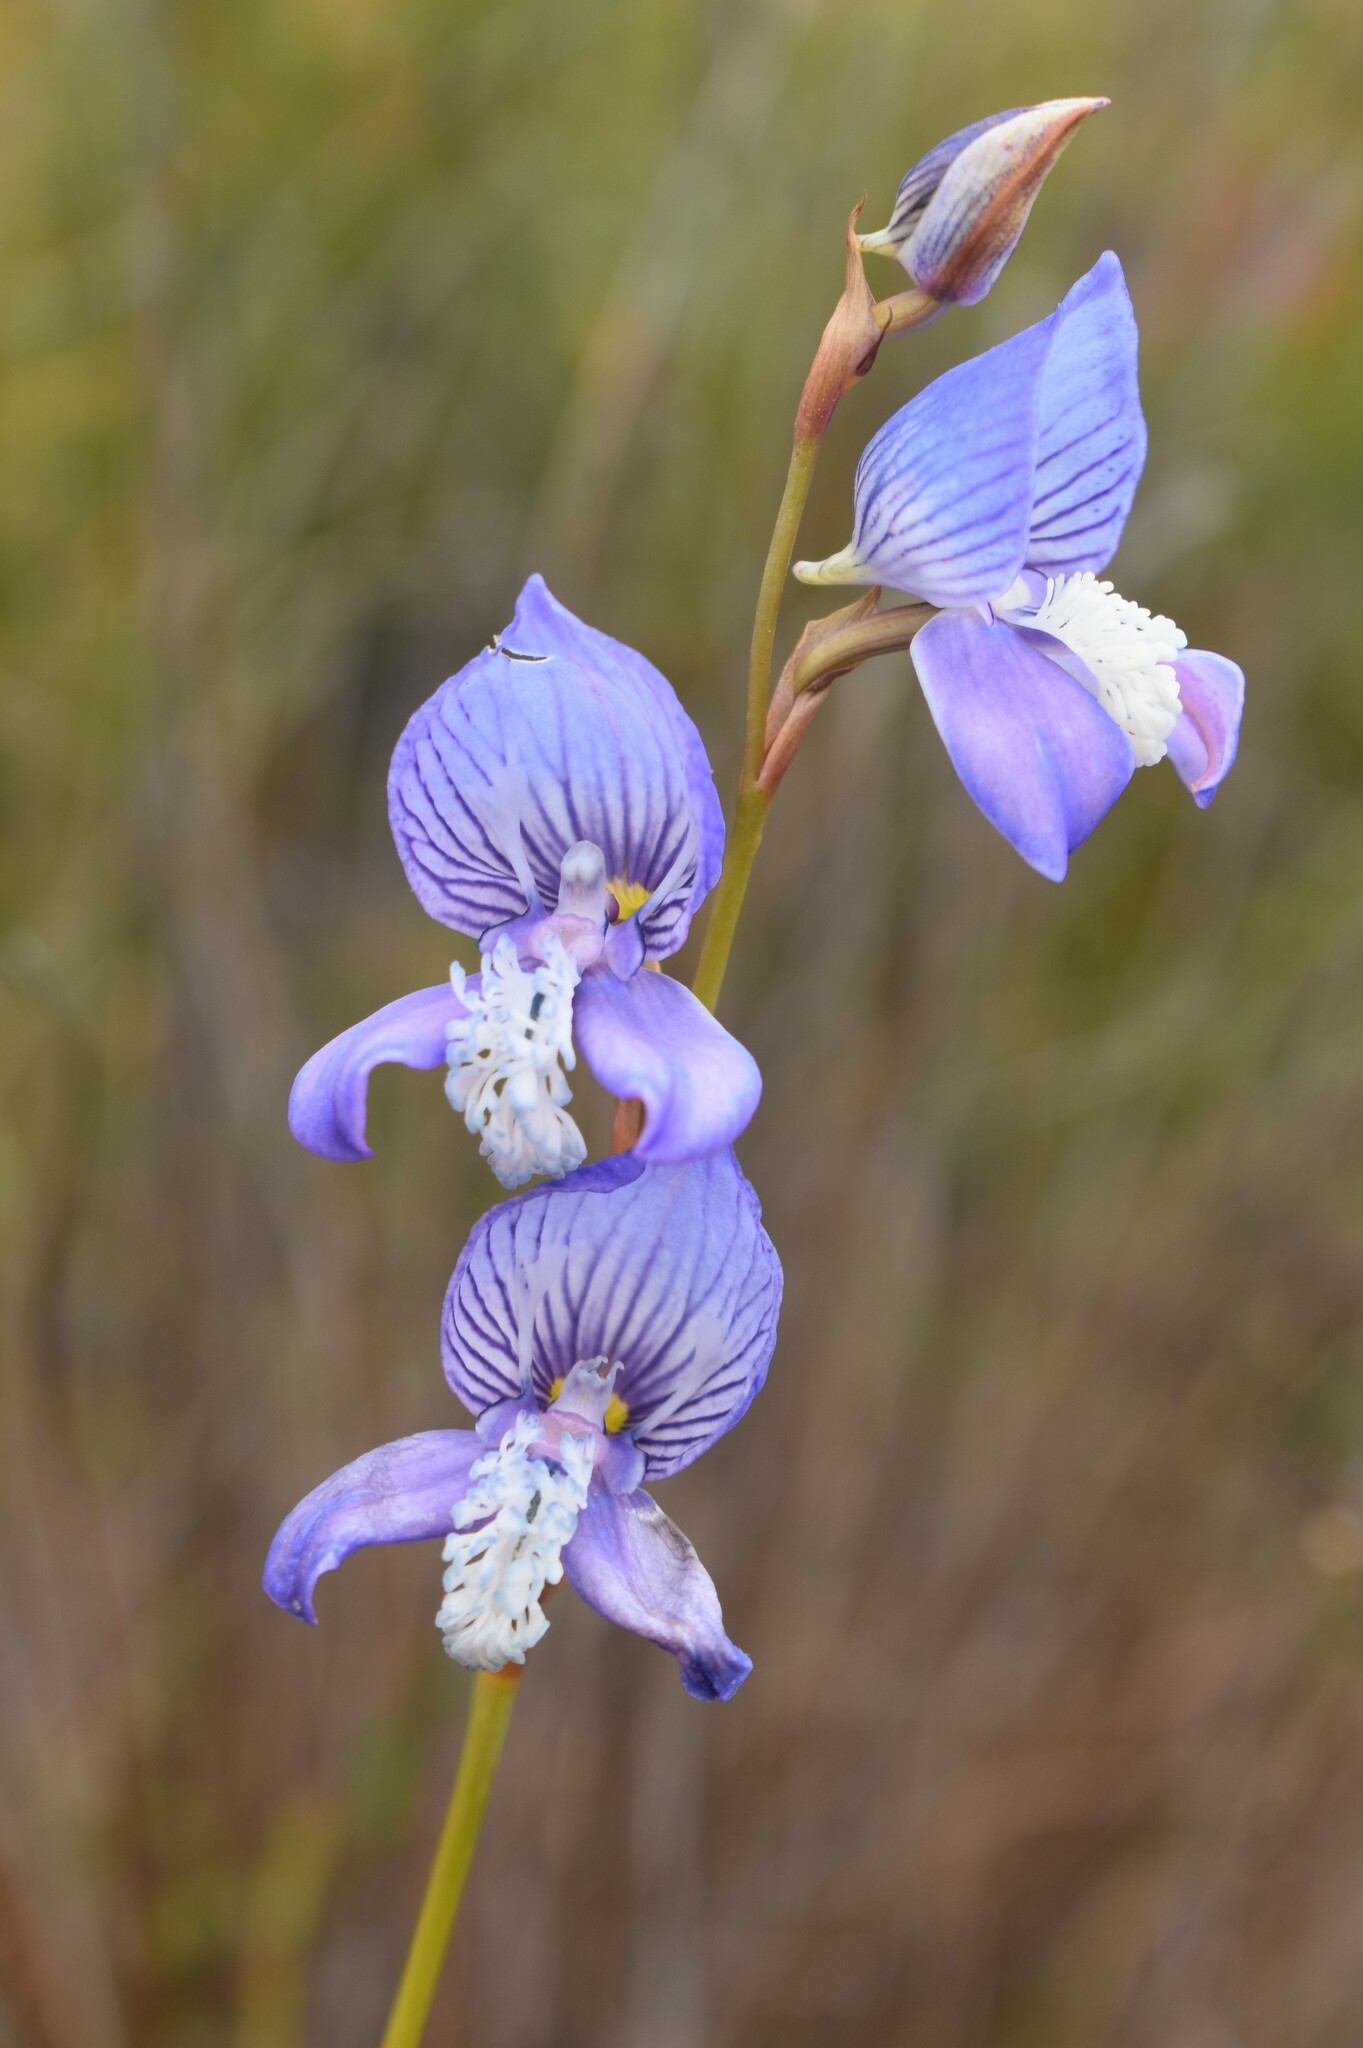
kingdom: Plantae
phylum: Tracheophyta
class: Liliopsida
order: Asparagales
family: Orchidaceae
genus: Disa
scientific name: Disa venusta
